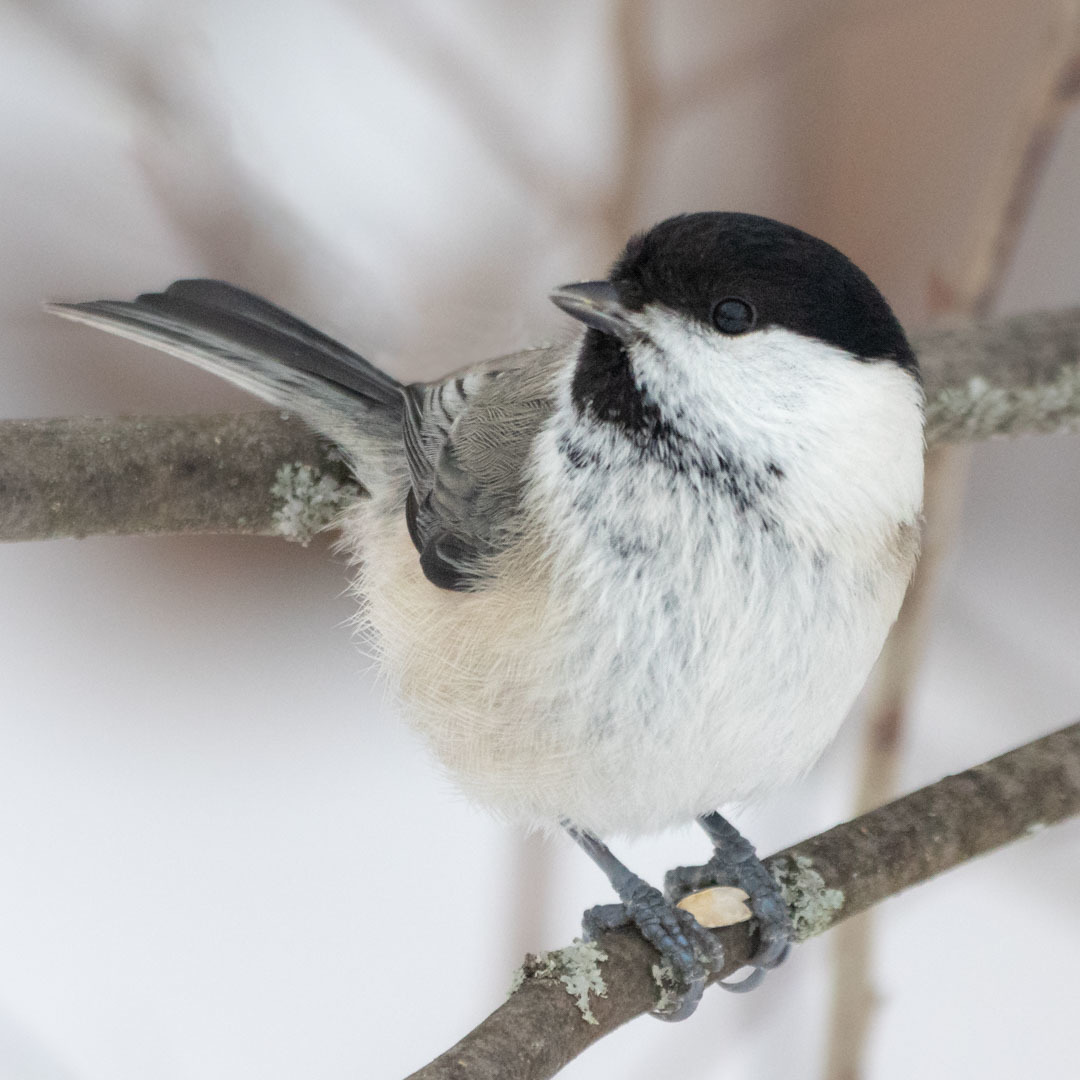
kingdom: Animalia
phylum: Chordata
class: Aves
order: Passeriformes
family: Paridae
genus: Poecile
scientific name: Poecile montanus
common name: Willow tit
